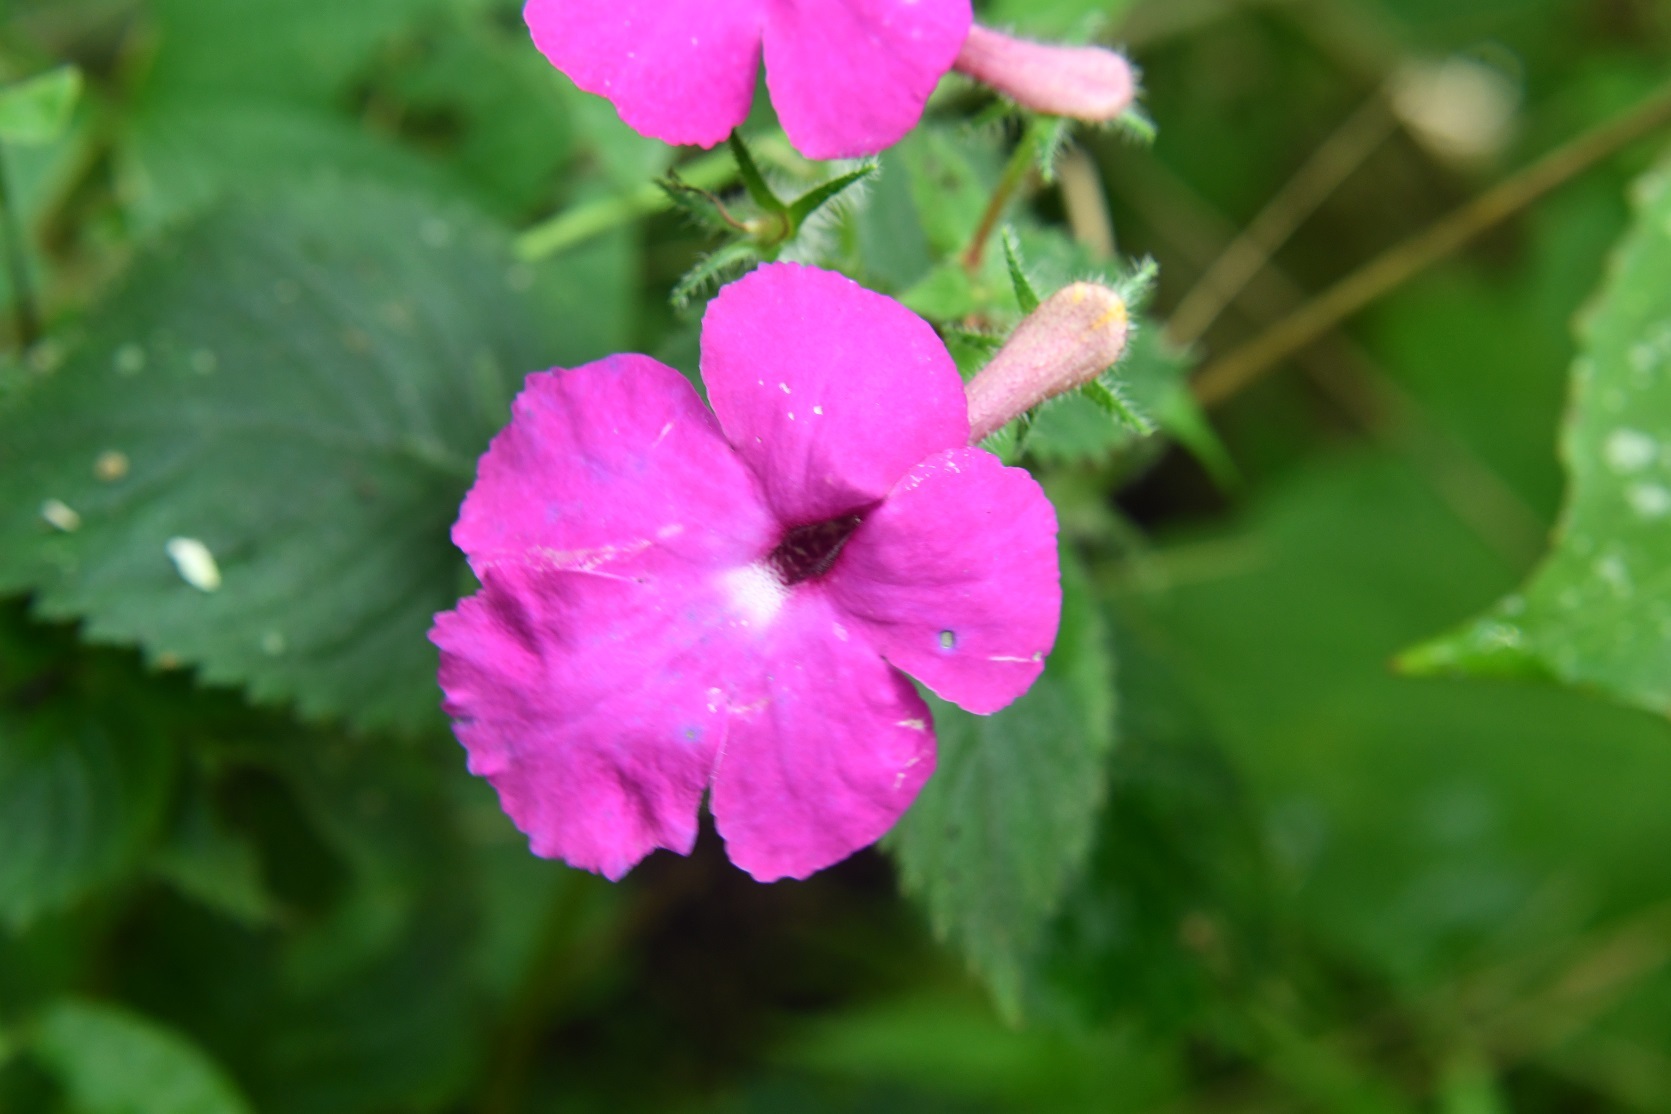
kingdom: Plantae
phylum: Tracheophyta
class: Magnoliopsida
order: Lamiales
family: Gesneriaceae
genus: Achimenes
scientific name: Achimenes grandiflora
